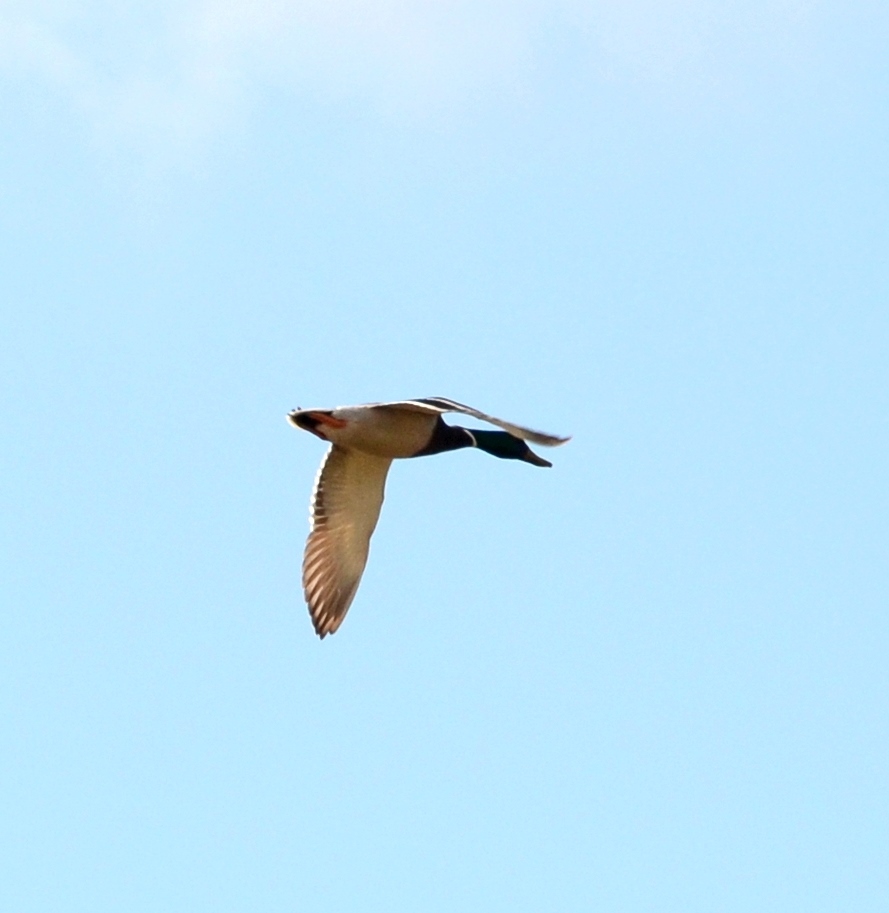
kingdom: Animalia
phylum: Chordata
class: Aves
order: Anseriformes
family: Anatidae
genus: Anas
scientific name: Anas platyrhynchos
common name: Mallard
